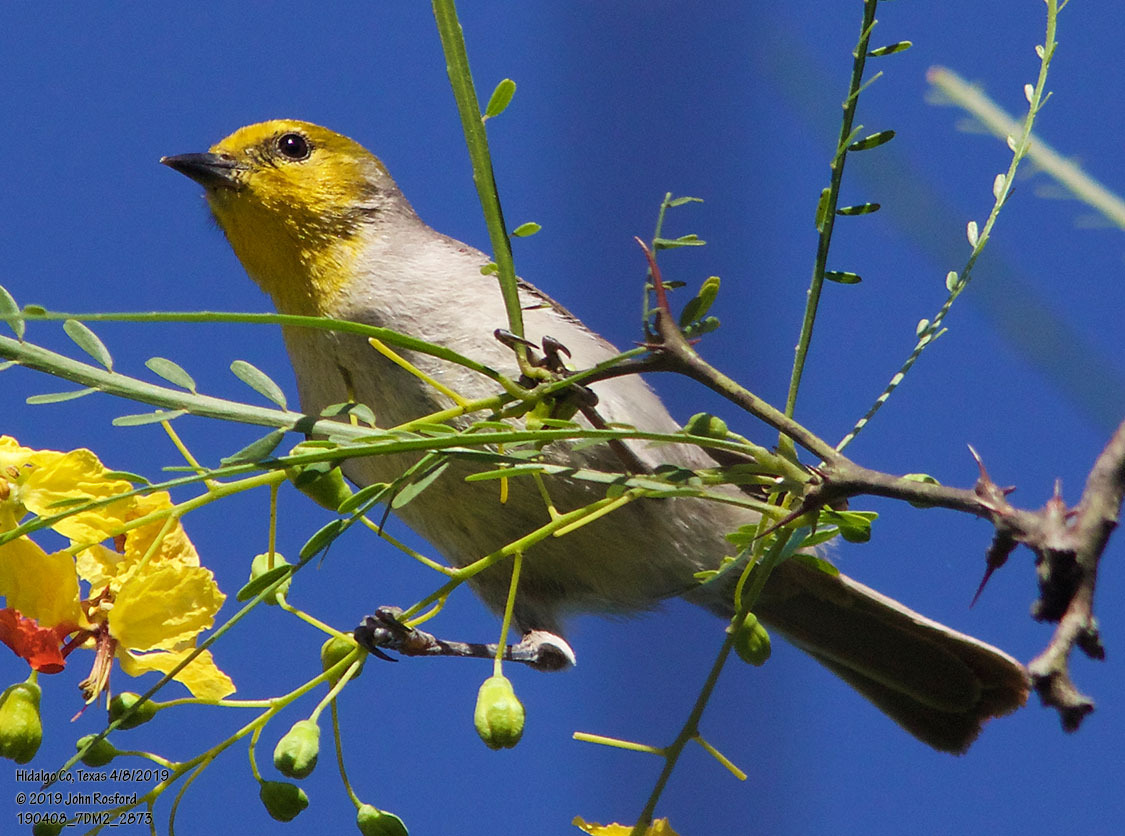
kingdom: Animalia
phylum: Chordata
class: Aves
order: Passeriformes
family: Remizidae
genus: Auriparus
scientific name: Auriparus flaviceps
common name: Verdin
